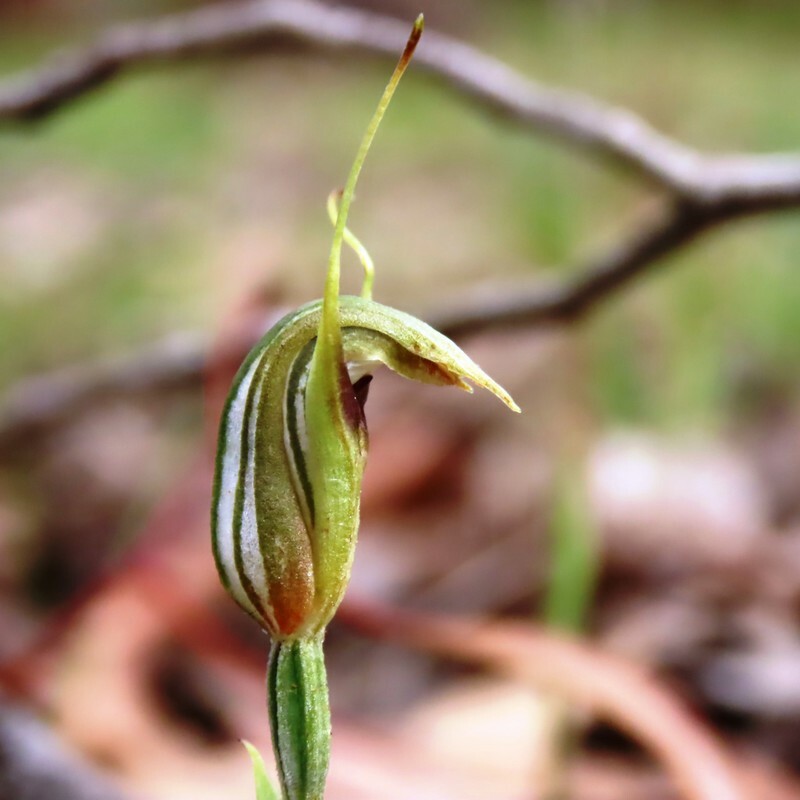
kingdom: Plantae
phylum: Tracheophyta
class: Liliopsida
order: Asparagales
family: Orchidaceae
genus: Pterostylis
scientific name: Pterostylis concinna
